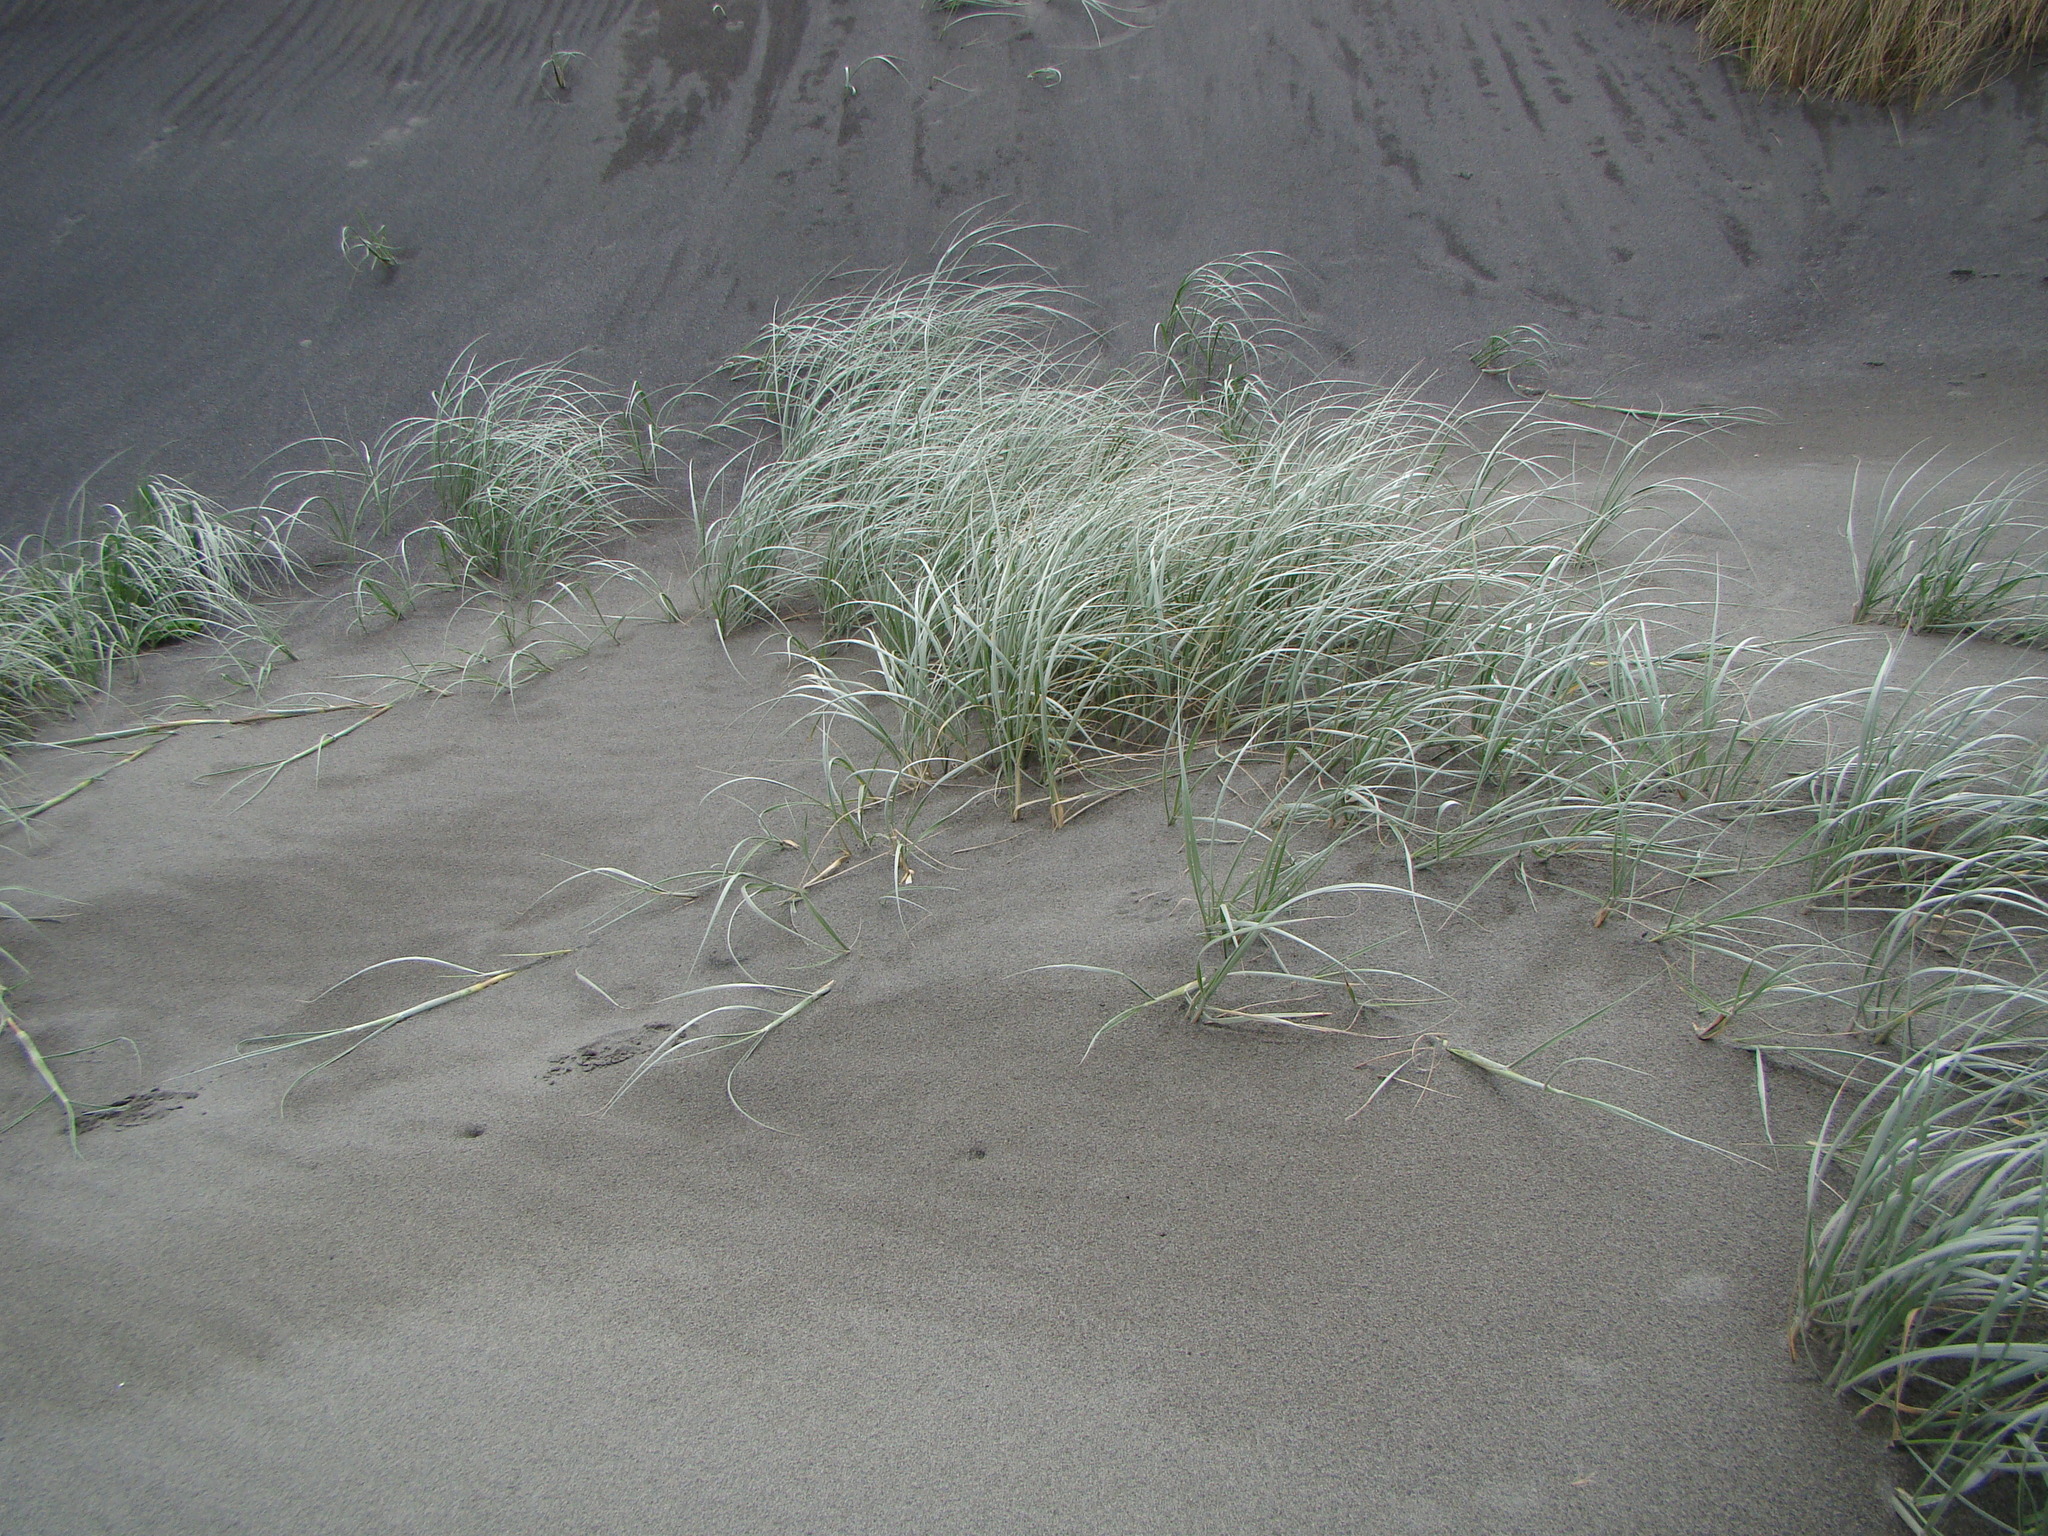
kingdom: Plantae
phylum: Tracheophyta
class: Liliopsida
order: Poales
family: Poaceae
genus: Spinifex
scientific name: Spinifex sericeus
